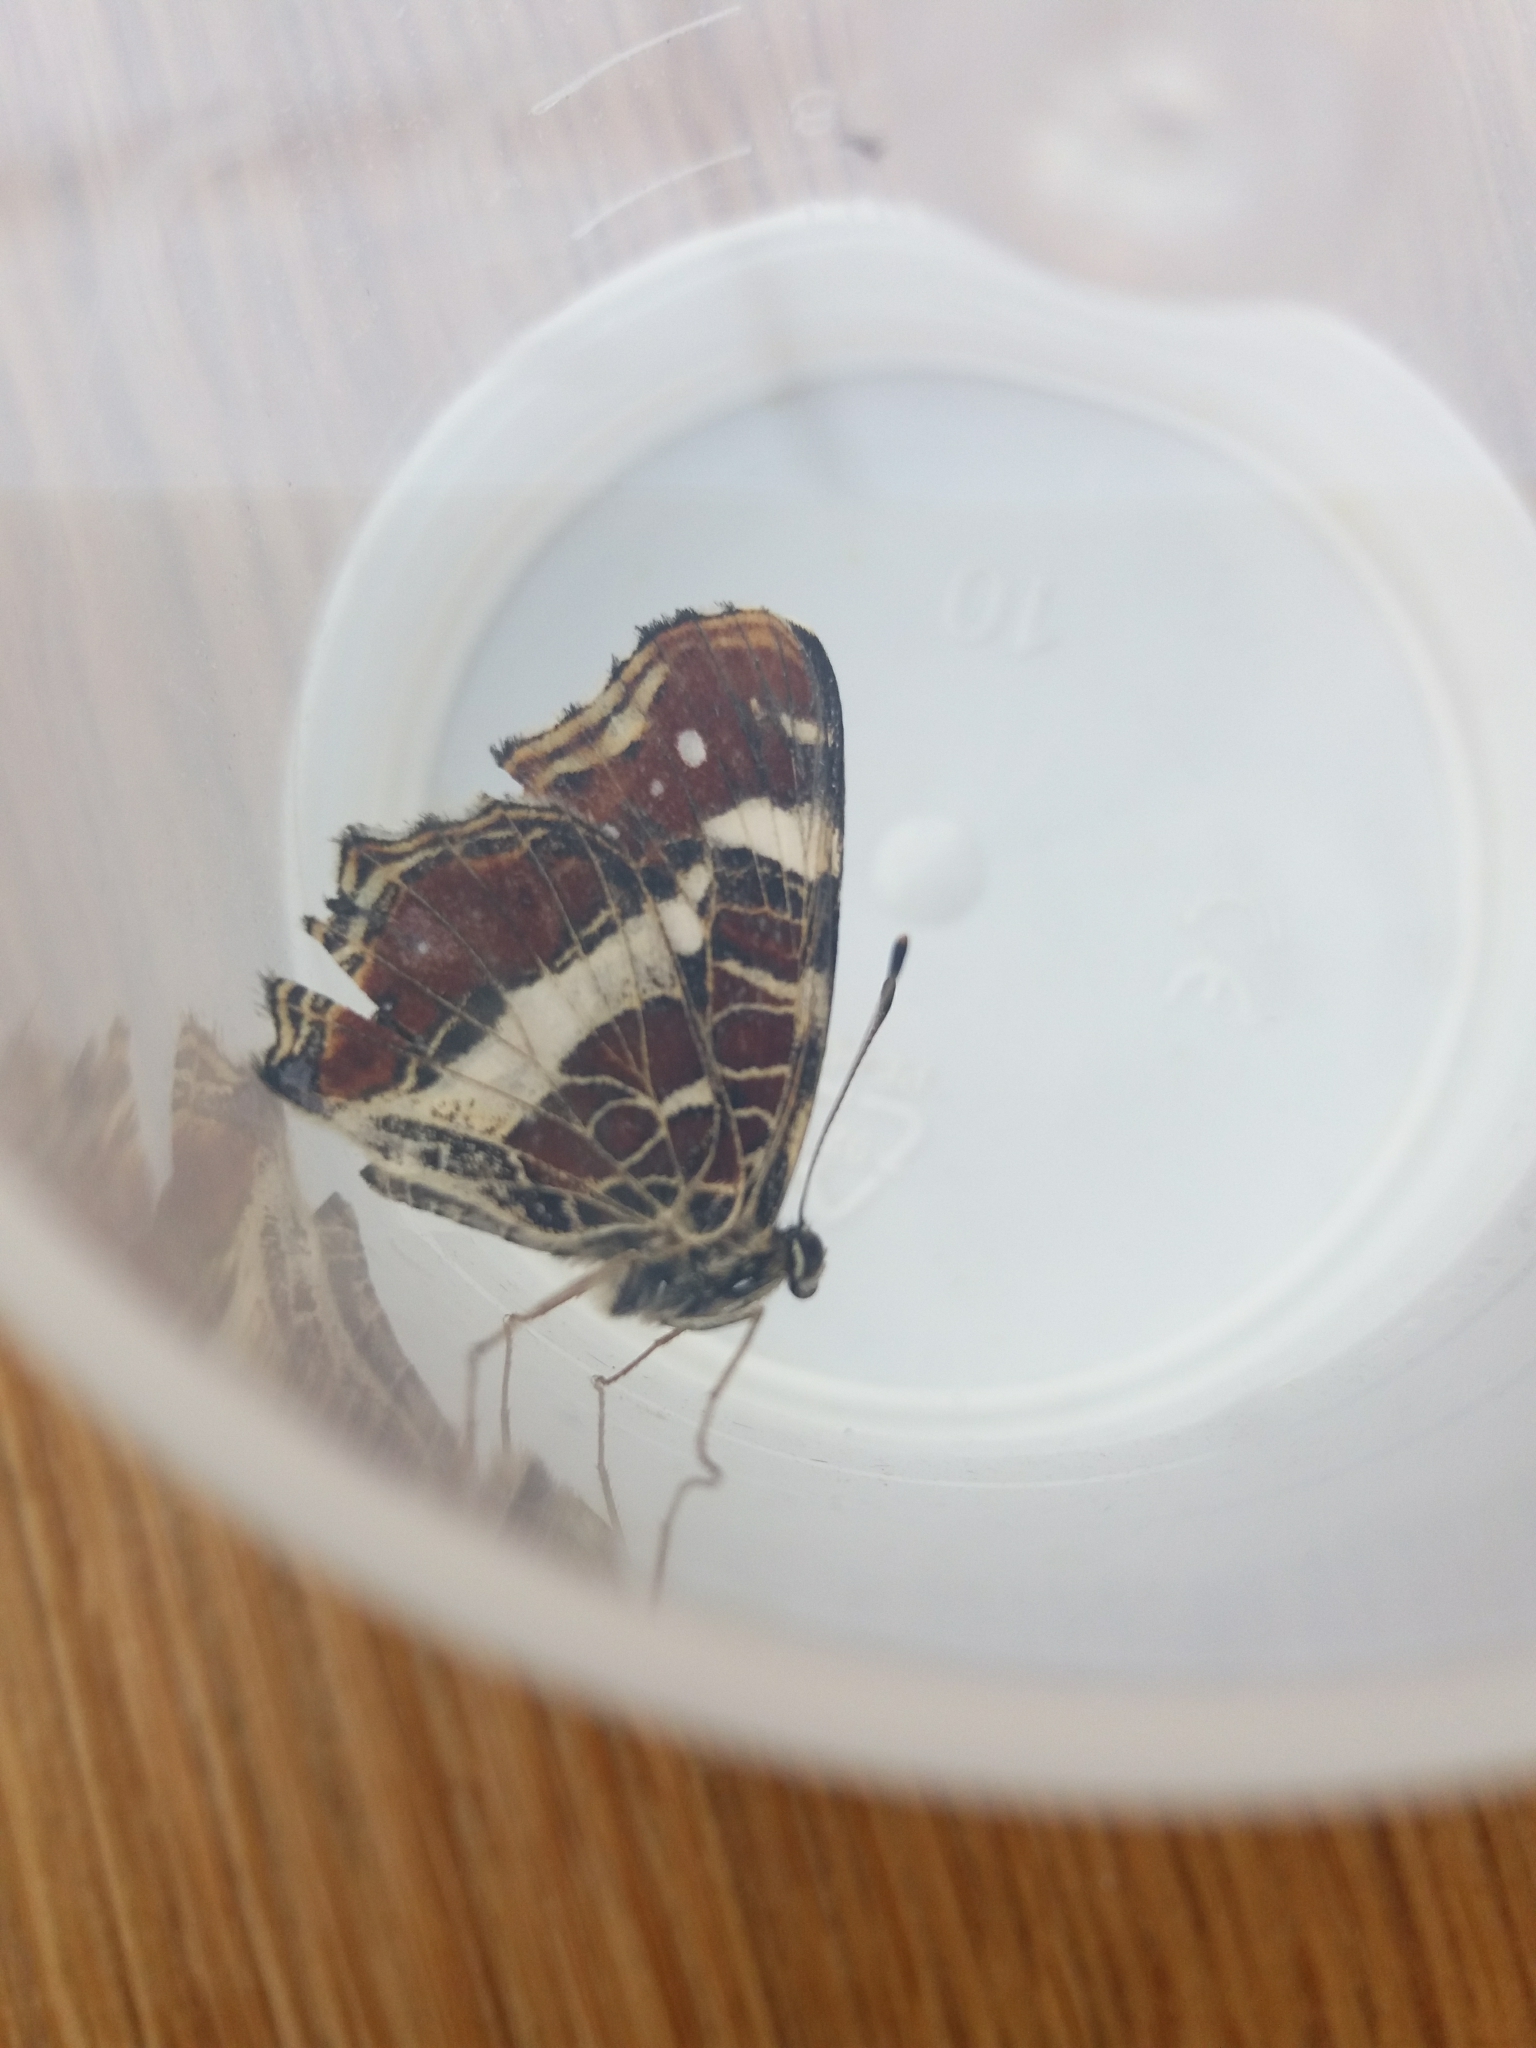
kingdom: Animalia
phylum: Arthropoda
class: Insecta
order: Lepidoptera
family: Nymphalidae
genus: Araschnia
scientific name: Araschnia levana
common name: Map butterfly
